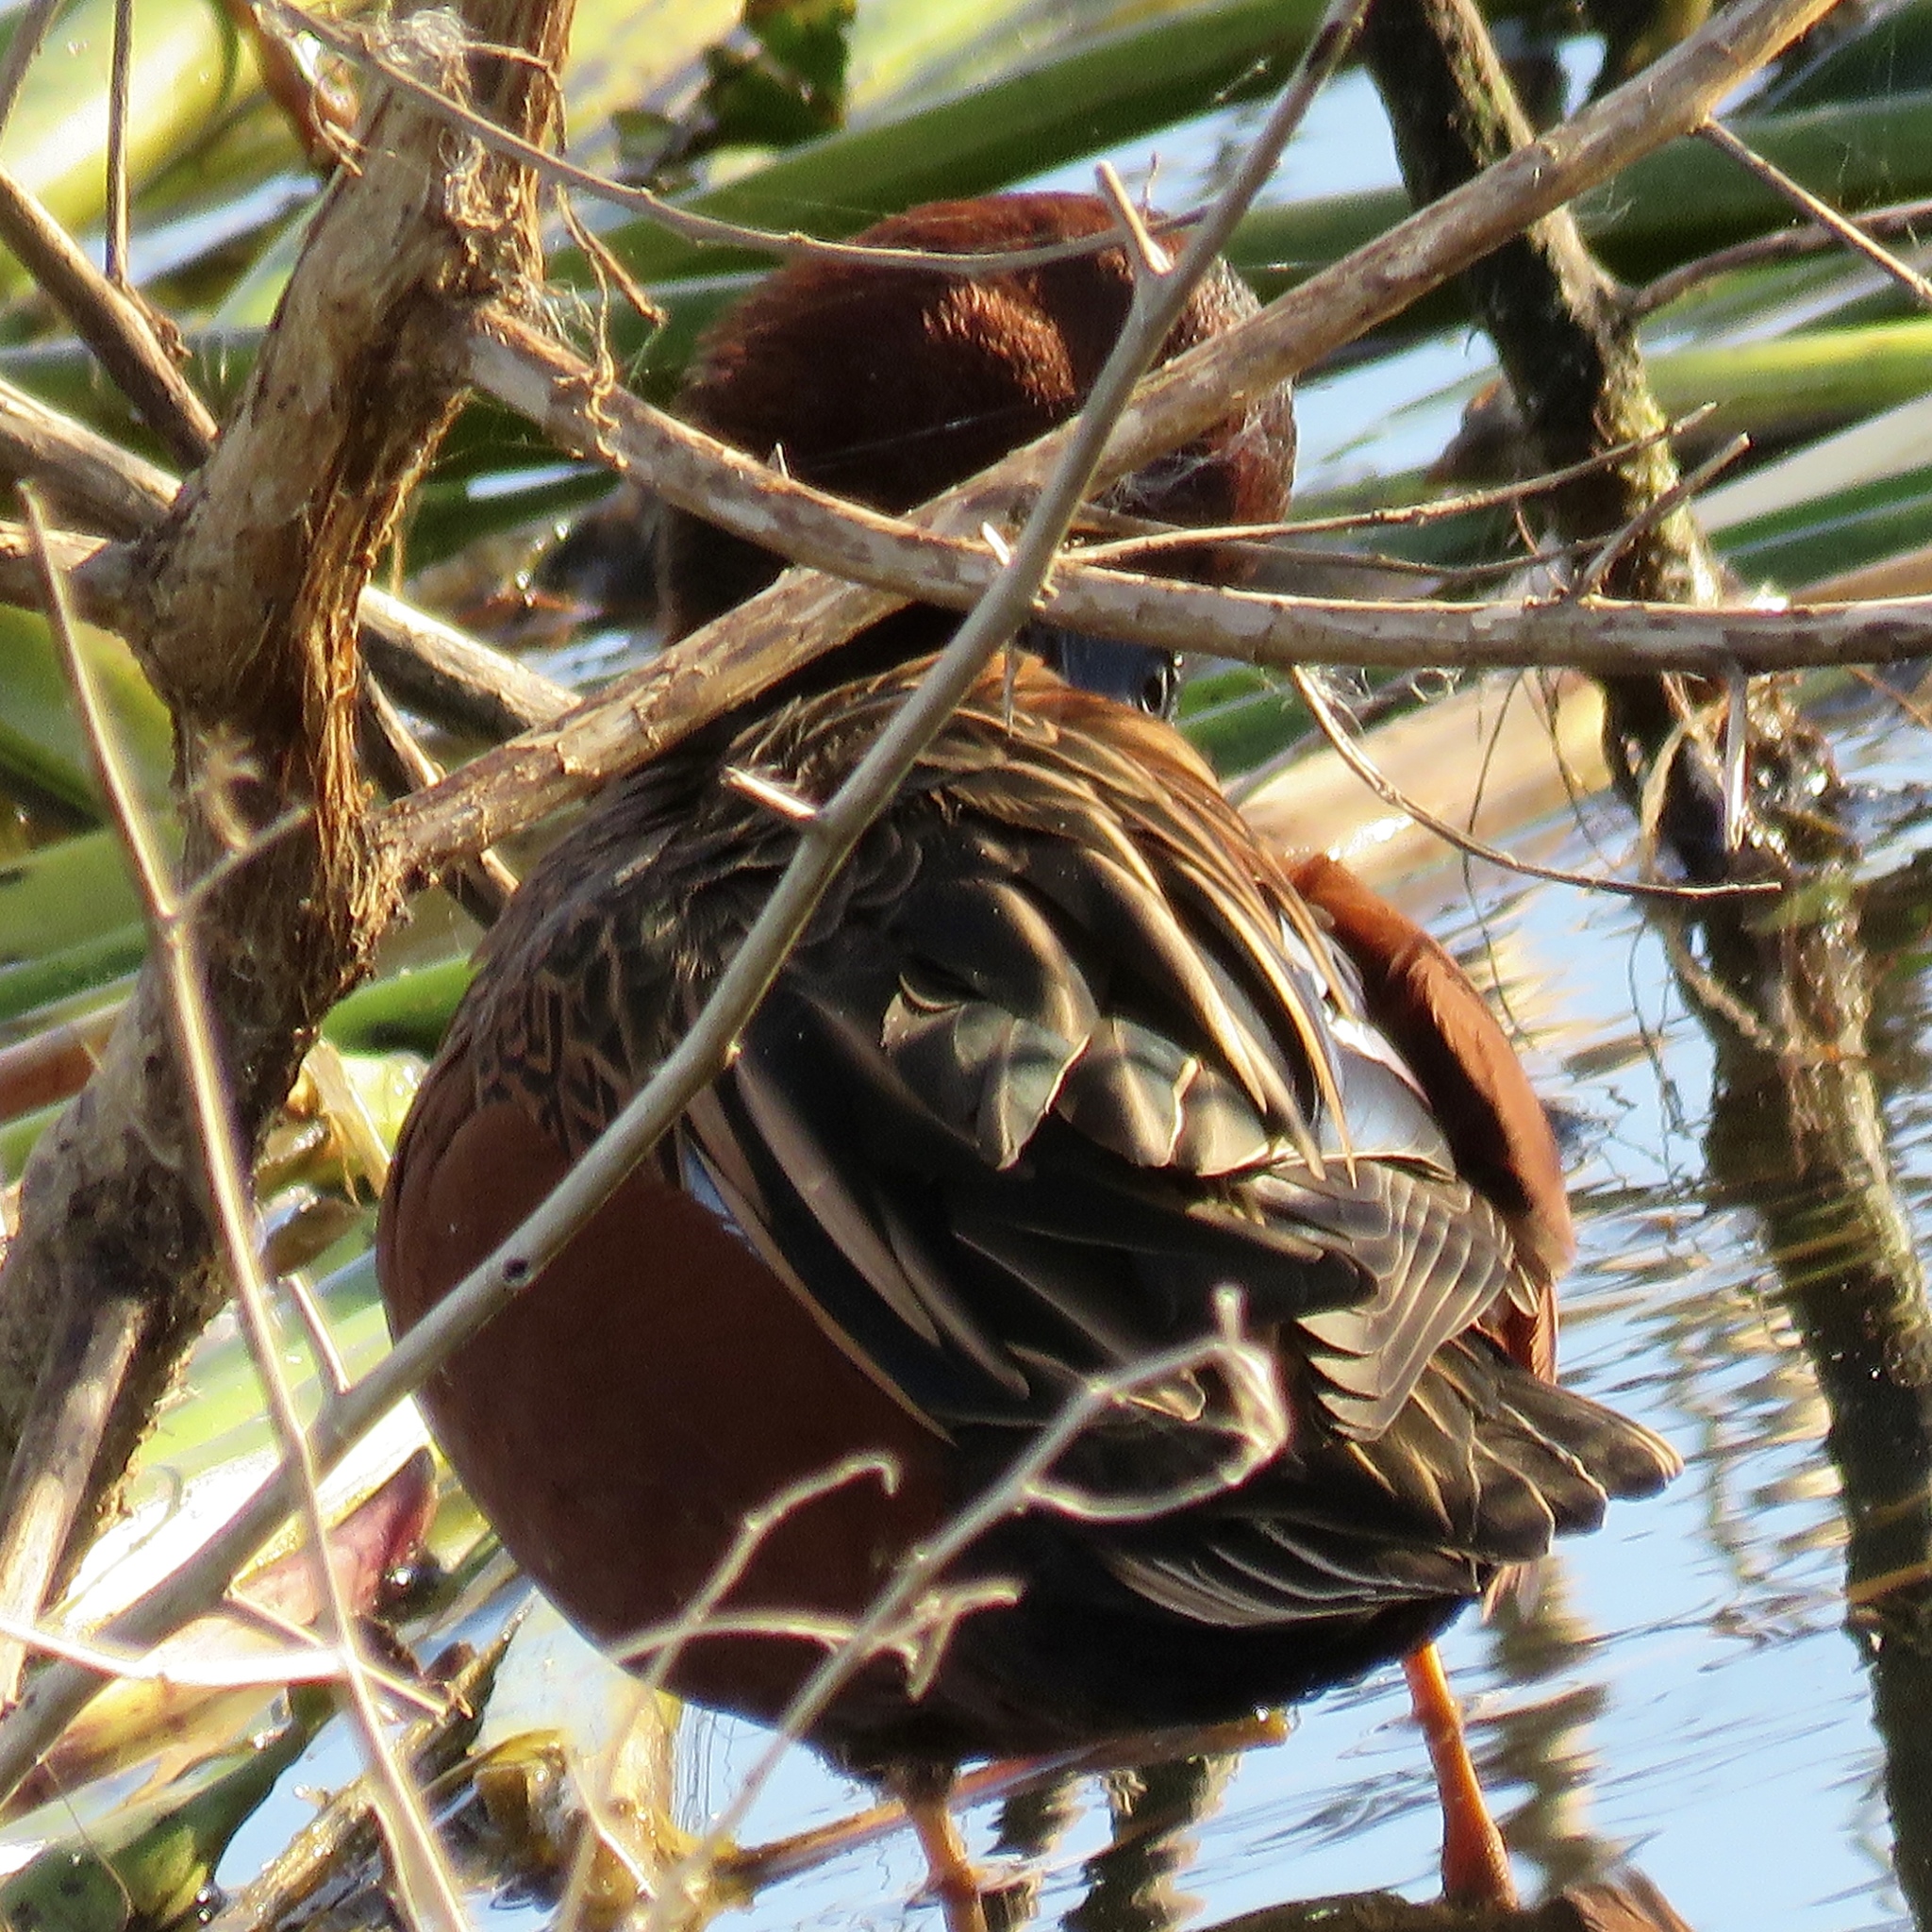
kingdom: Animalia
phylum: Chordata
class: Aves
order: Anseriformes
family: Anatidae
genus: Spatula
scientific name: Spatula cyanoptera
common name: Cinnamon teal
